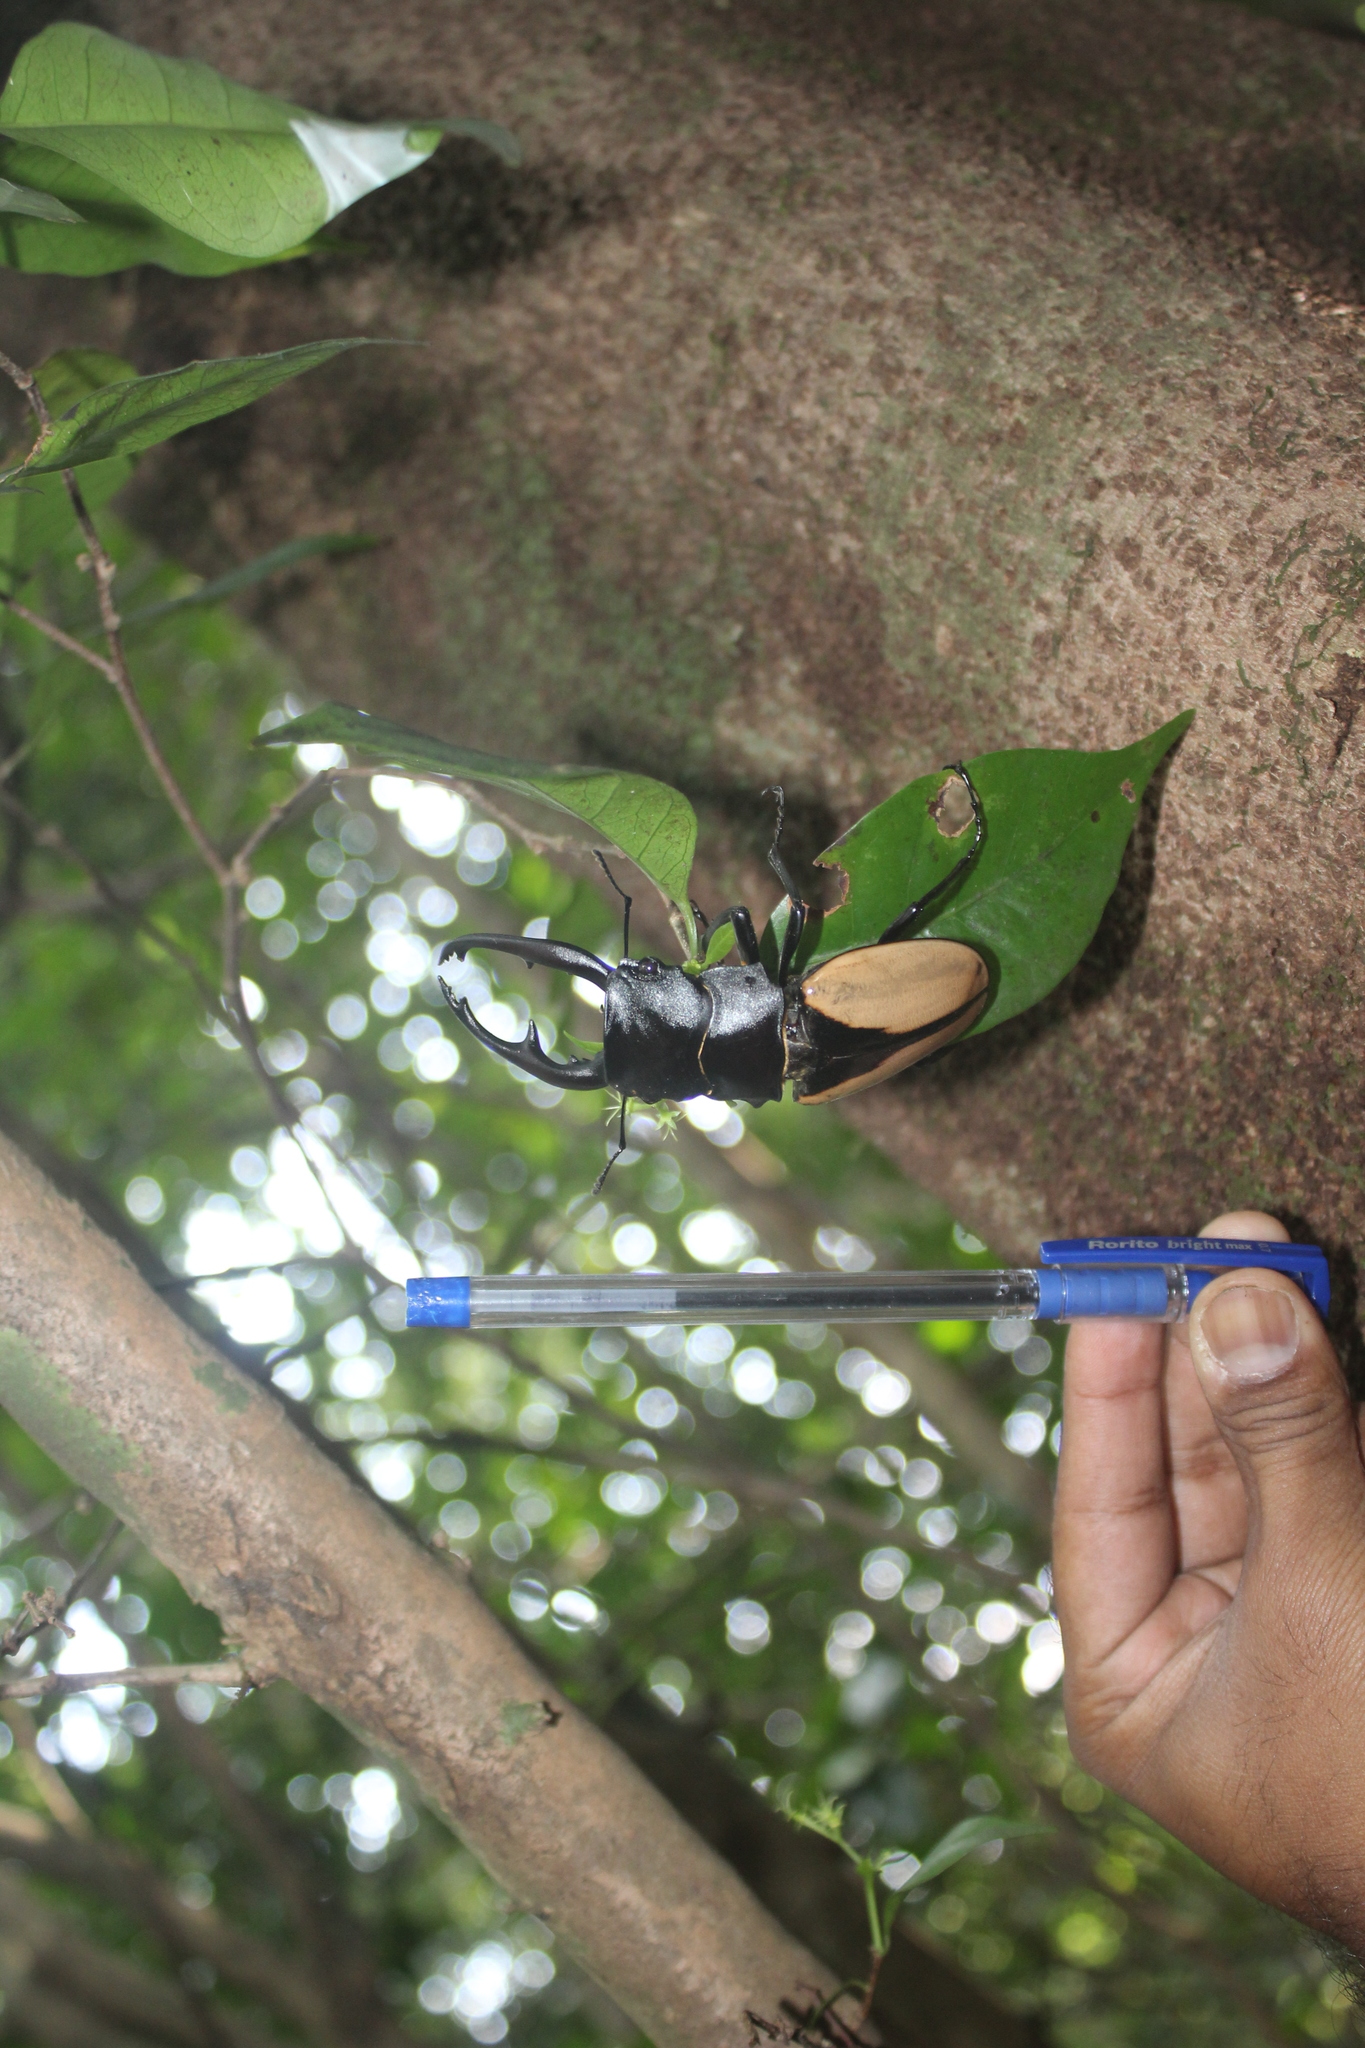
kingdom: Animalia
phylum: Arthropoda
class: Insecta
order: Coleoptera
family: Lucanidae
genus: Odontolabis
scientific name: Odontolabis burmeisteri
